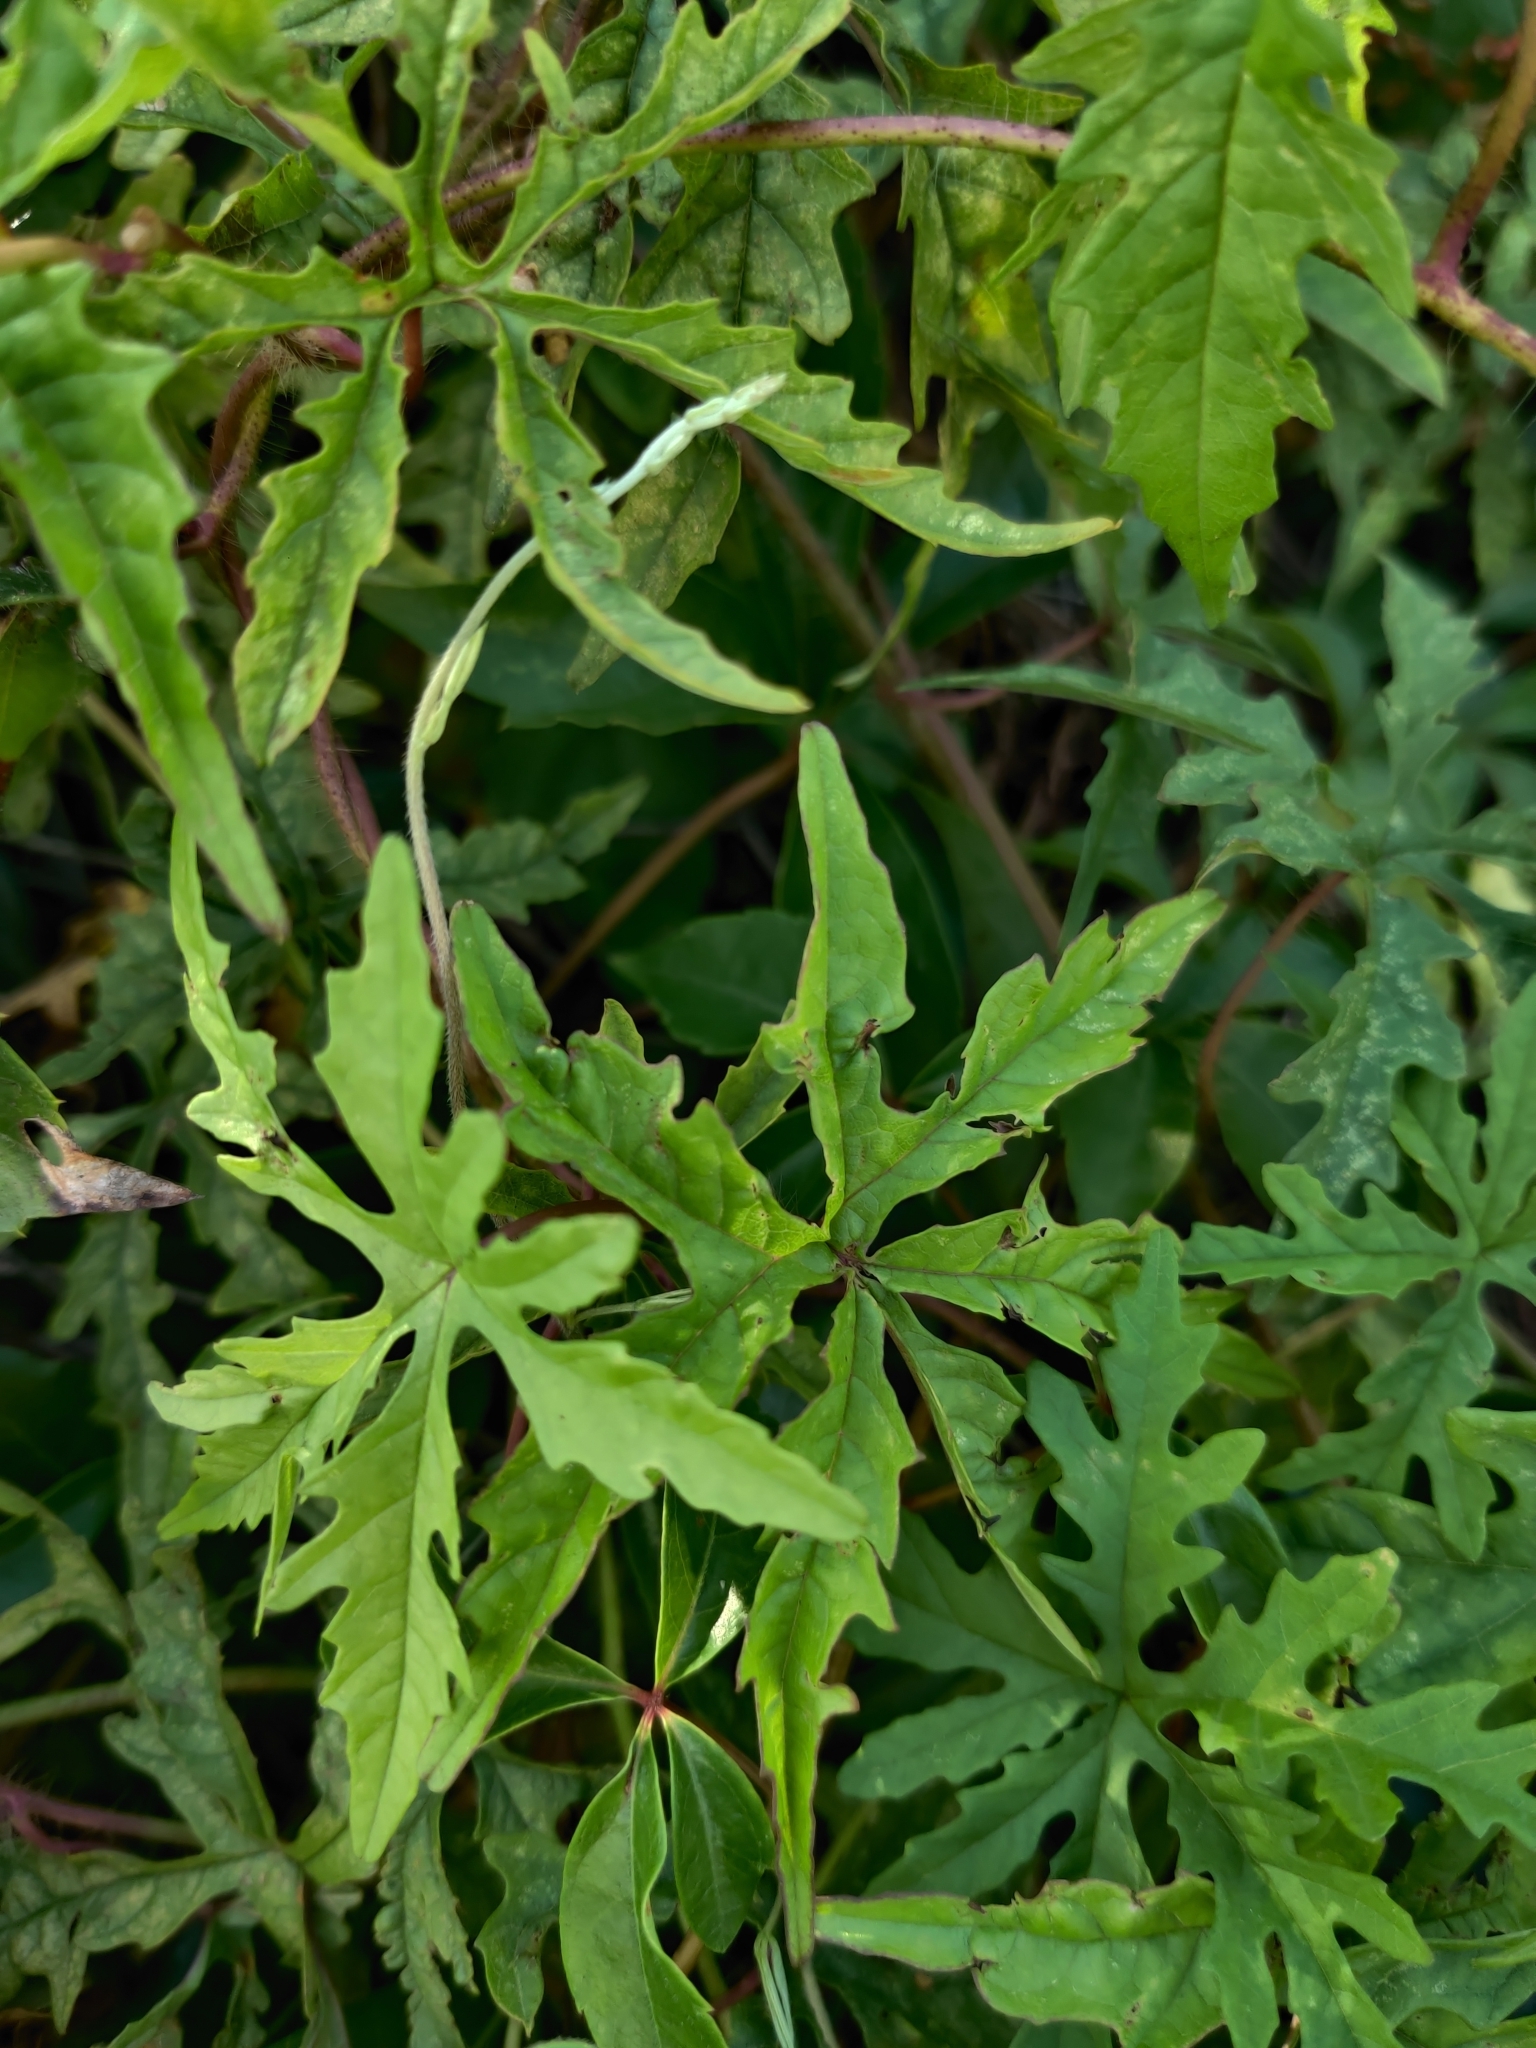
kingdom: Plantae
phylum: Tracheophyta
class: Magnoliopsida
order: Solanales
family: Convolvulaceae
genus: Distimake
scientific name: Distimake dissectus
